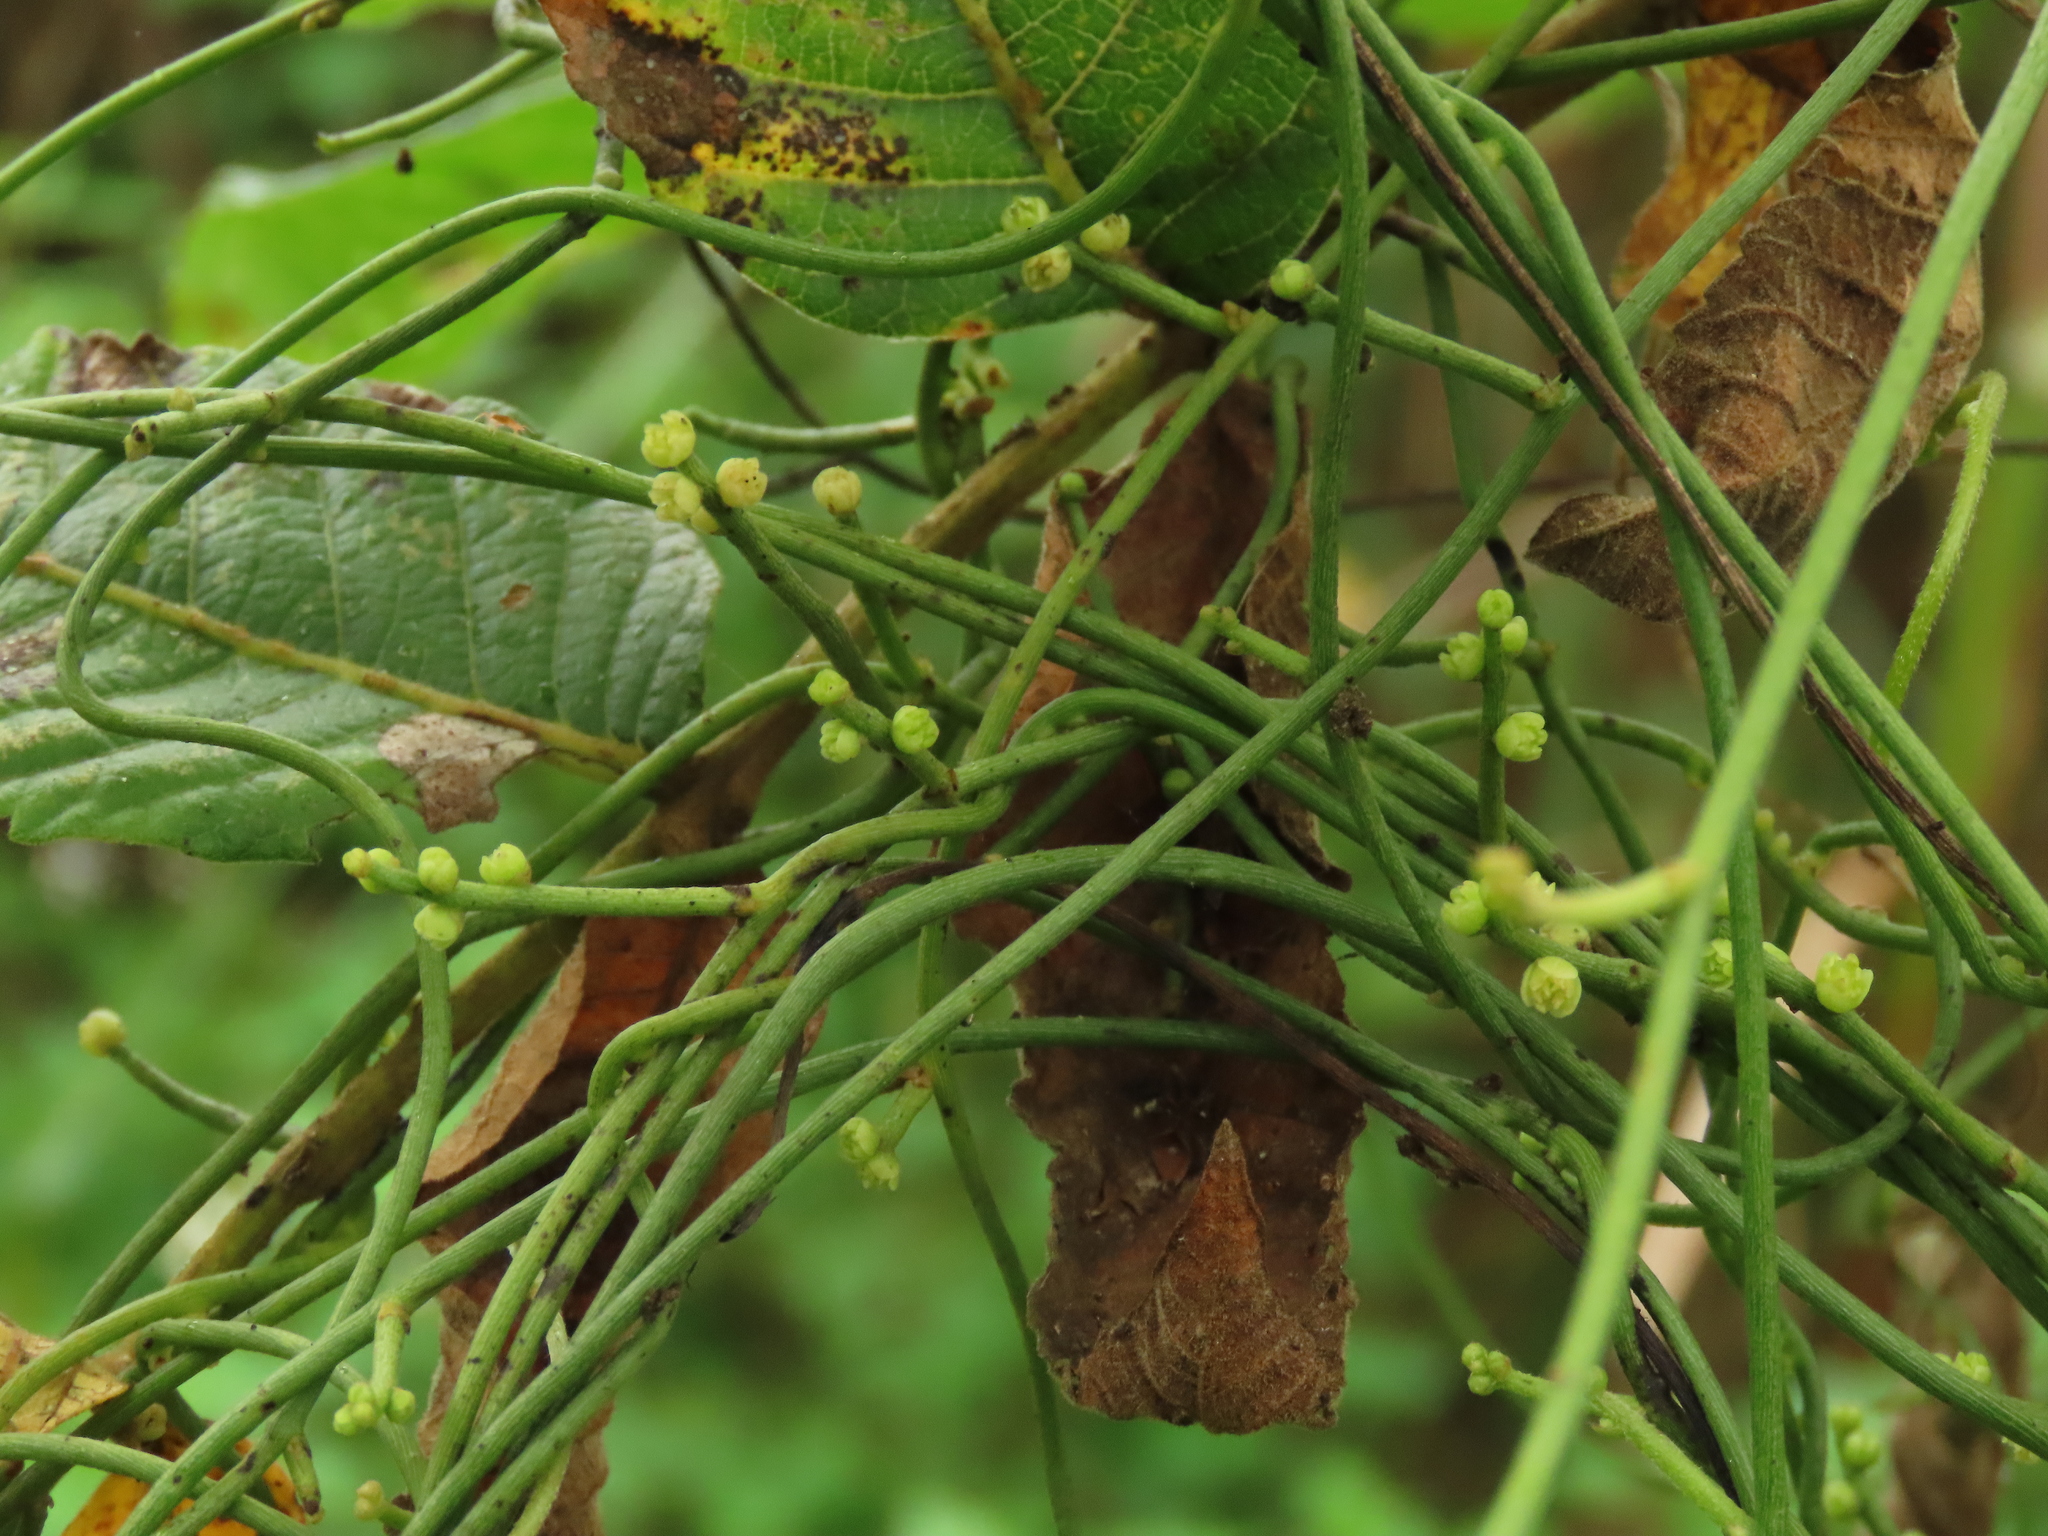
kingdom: Plantae
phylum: Tracheophyta
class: Magnoliopsida
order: Laurales
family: Lauraceae
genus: Cassytha
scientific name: Cassytha filiformis
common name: Dodder-laurel
